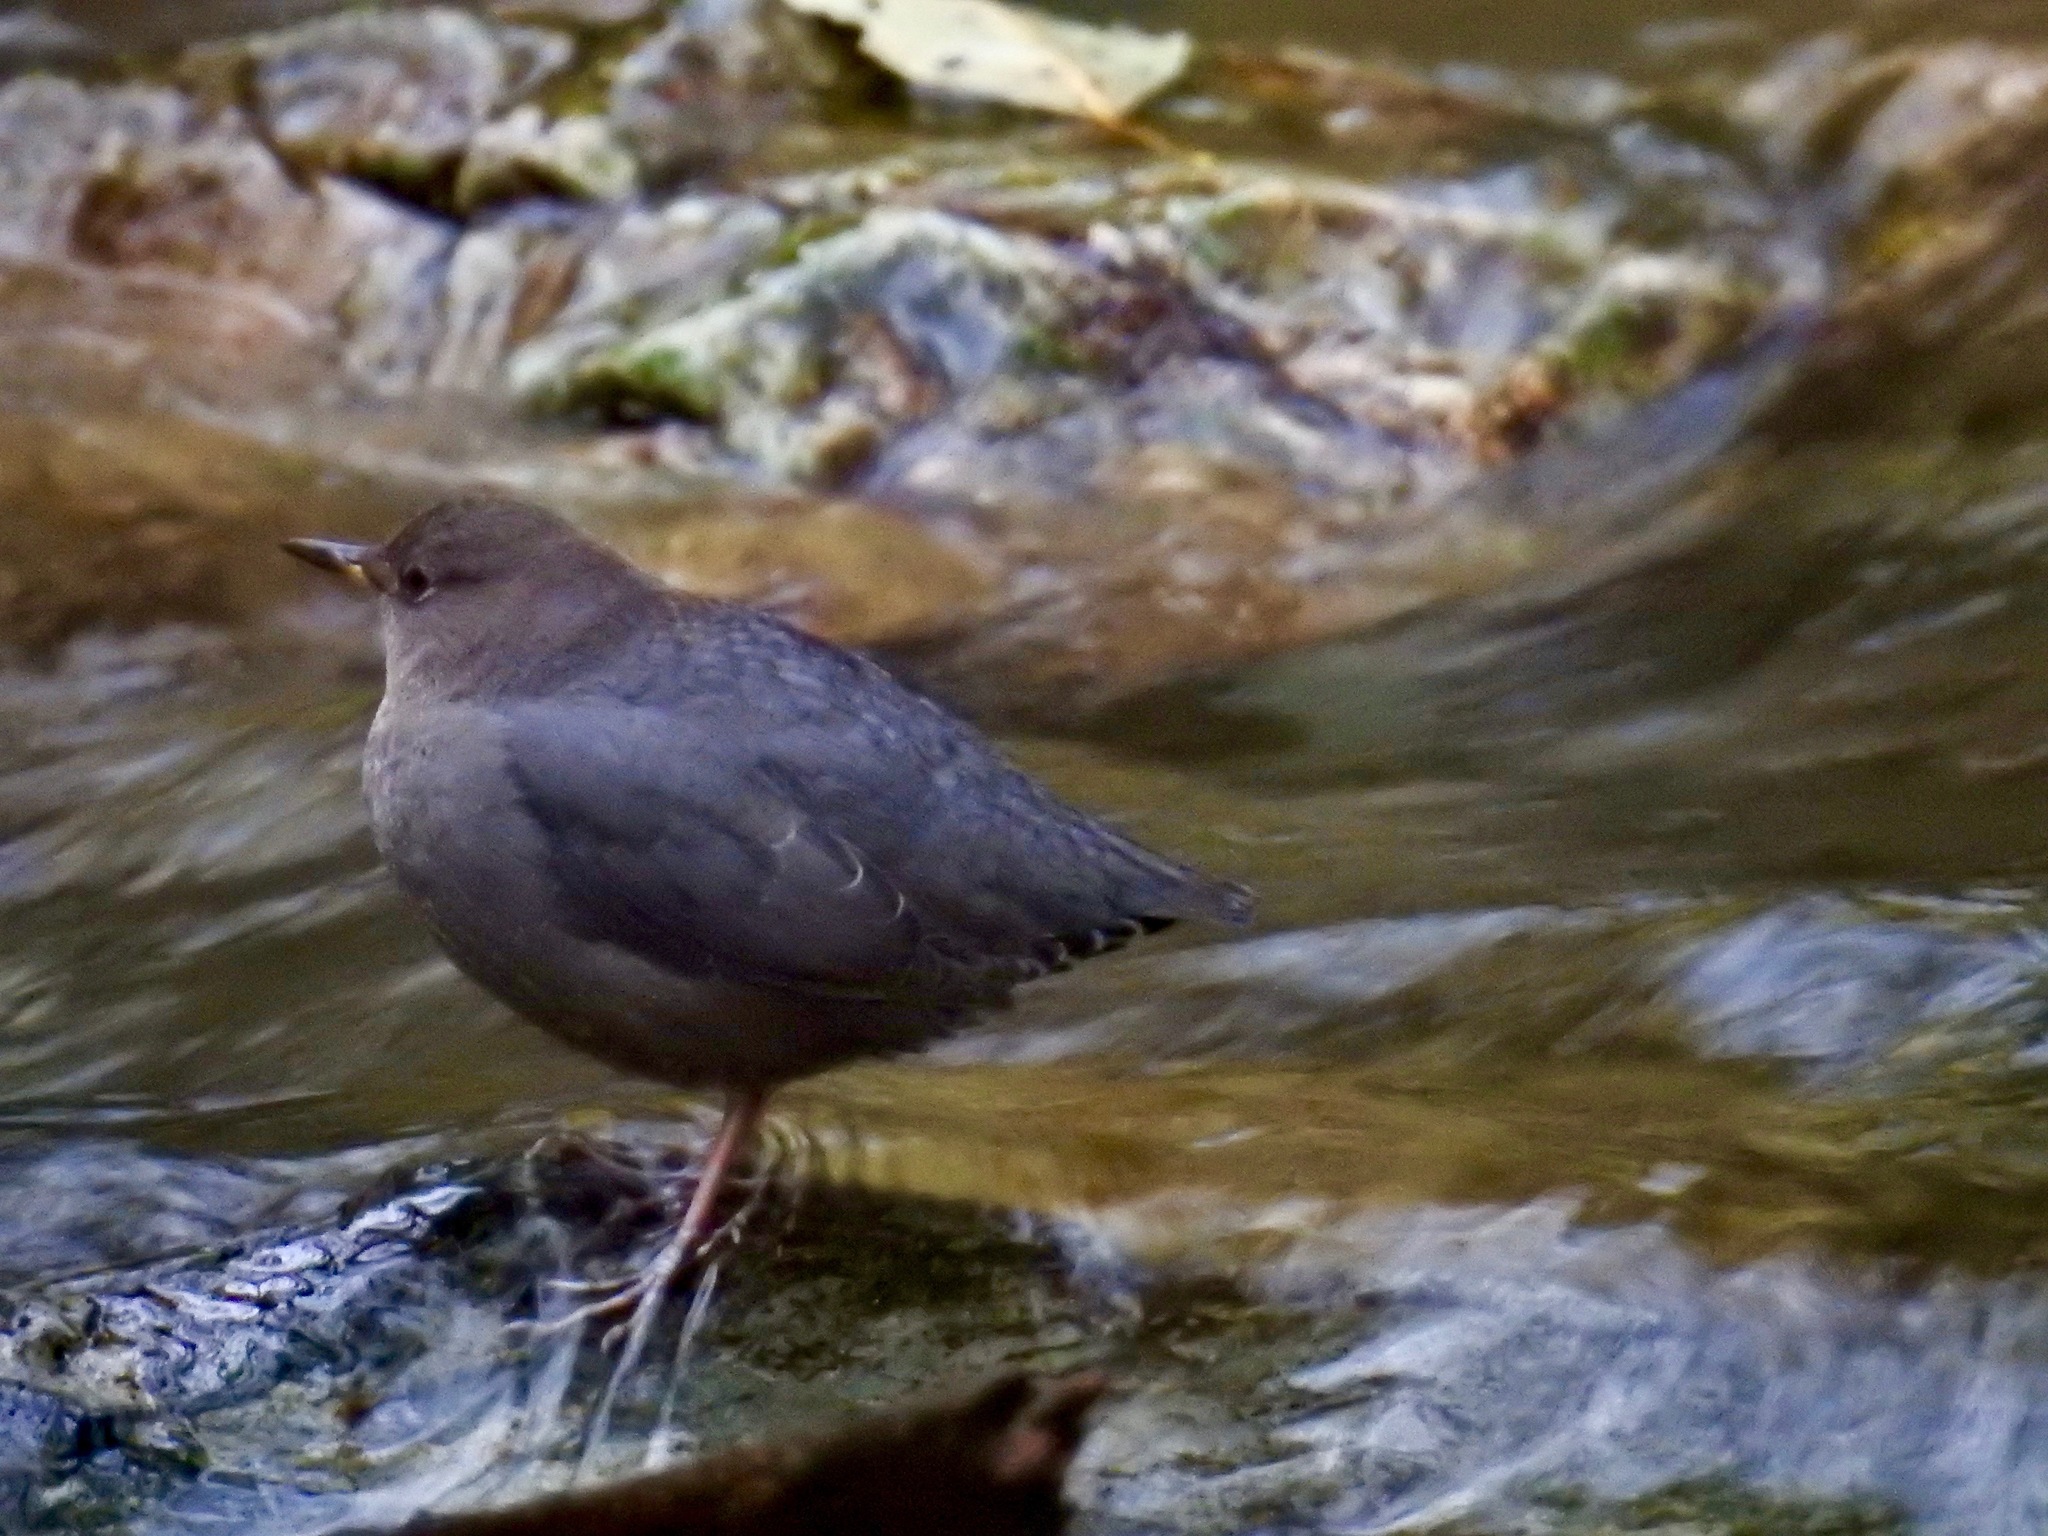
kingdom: Animalia
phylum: Chordata
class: Aves
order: Passeriformes
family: Cinclidae
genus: Cinclus
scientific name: Cinclus mexicanus
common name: American dipper
